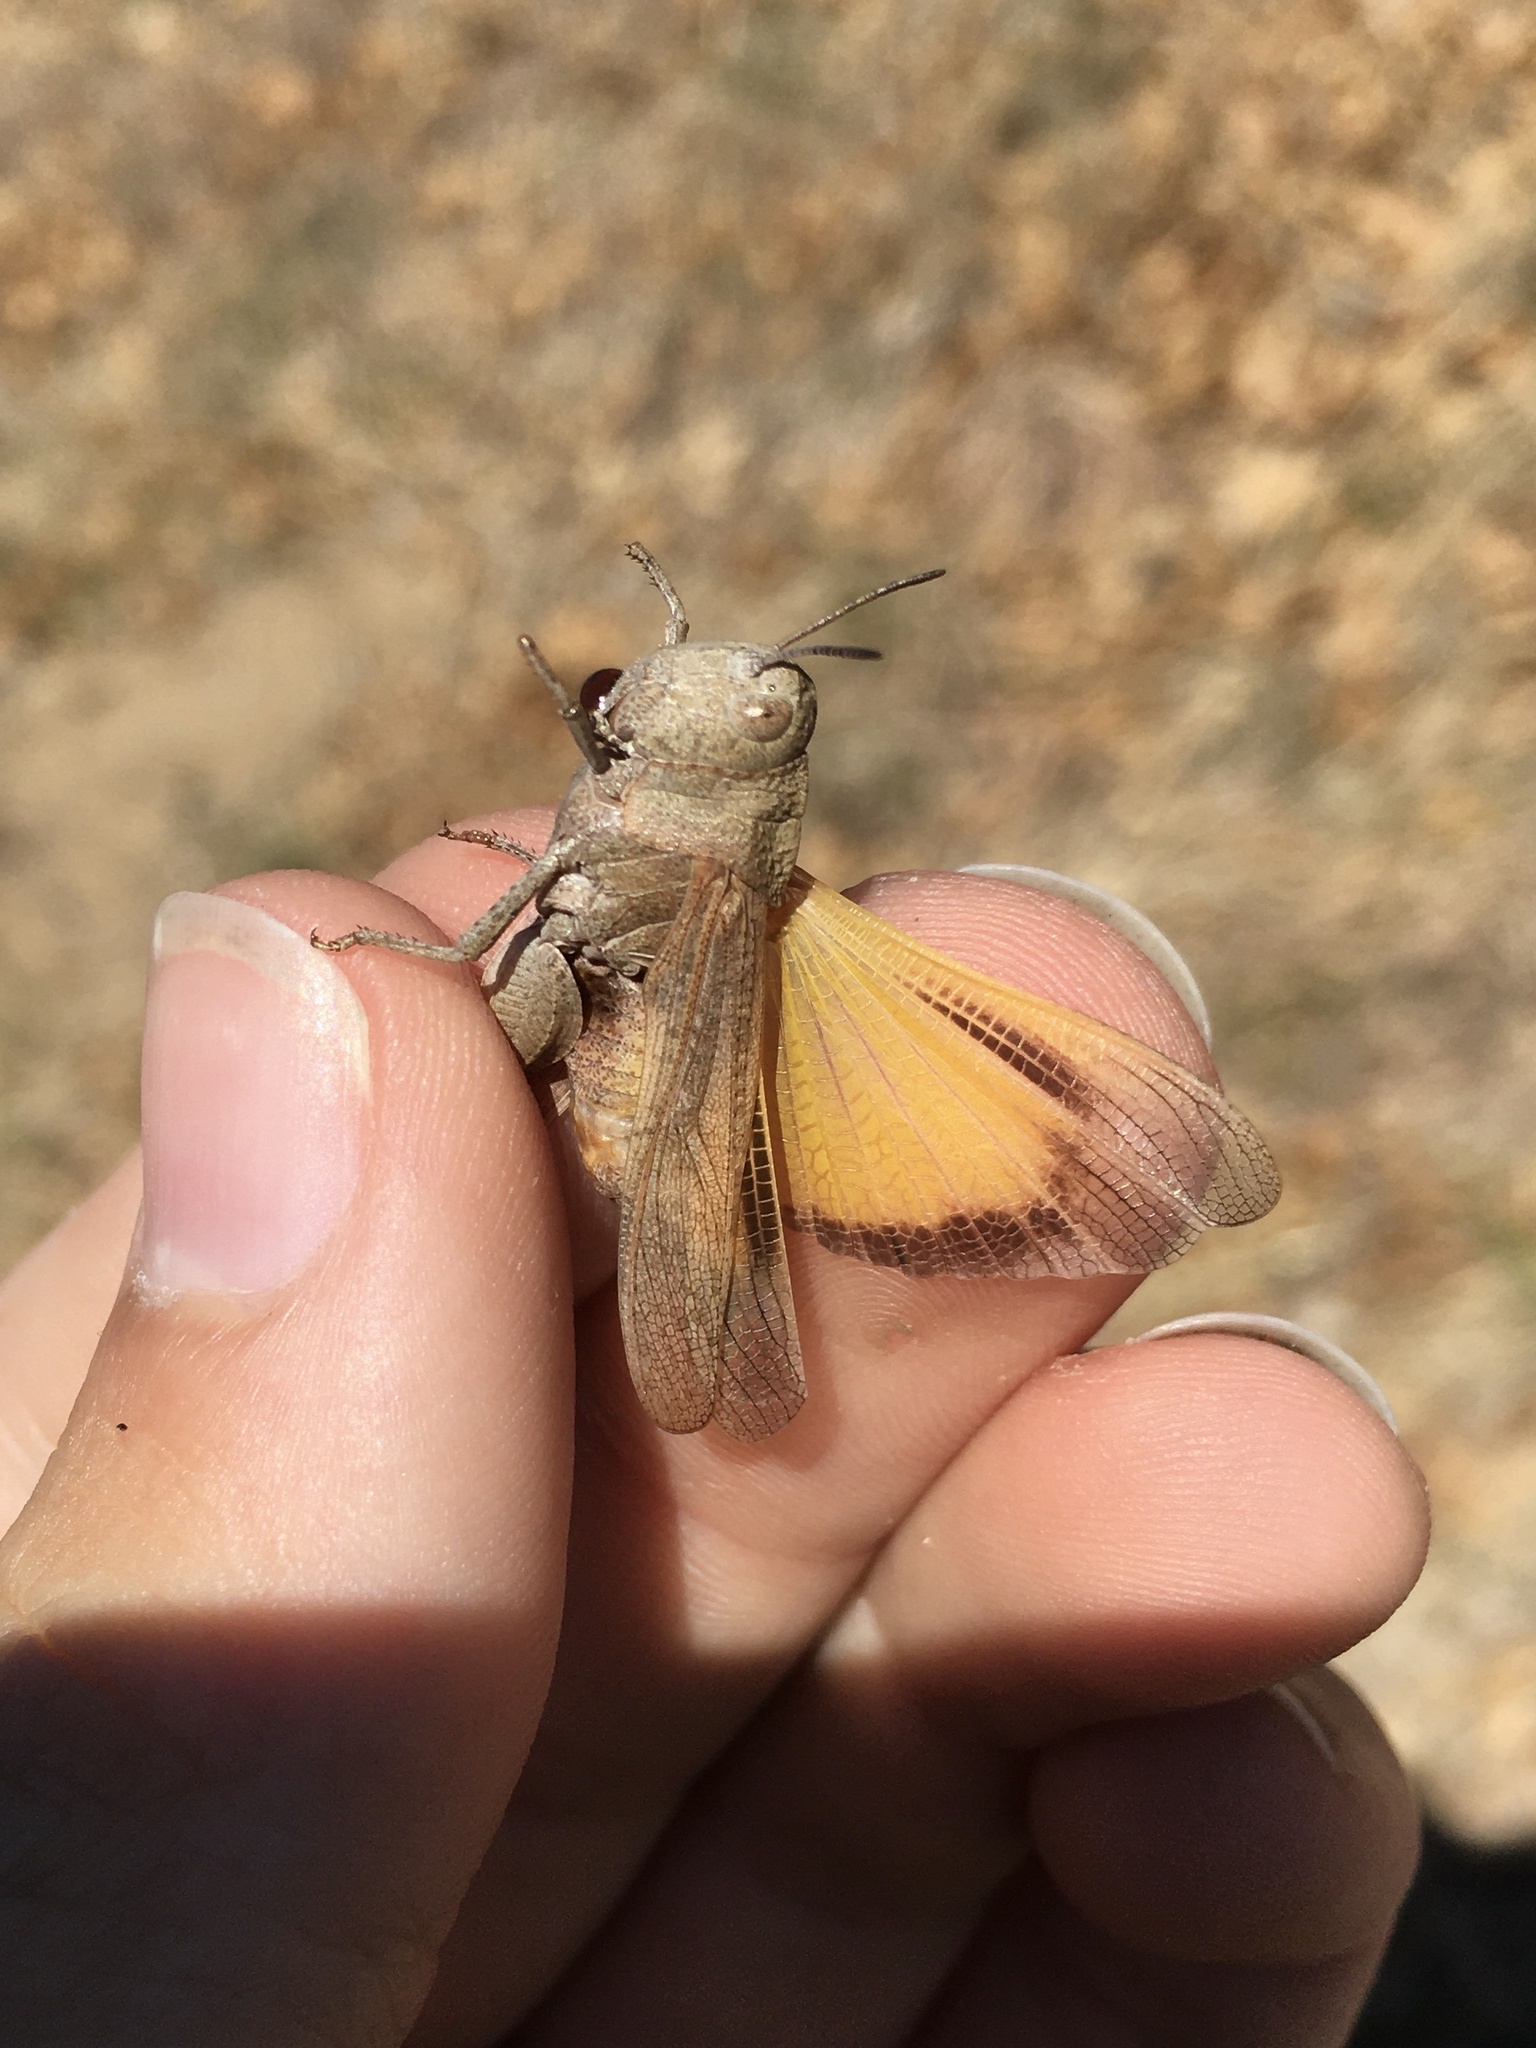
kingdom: Animalia
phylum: Arthropoda
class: Insecta
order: Orthoptera
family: Acrididae
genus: Arphia
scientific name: Arphia conspersa
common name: Speckle-winged rangeland grasshopper
